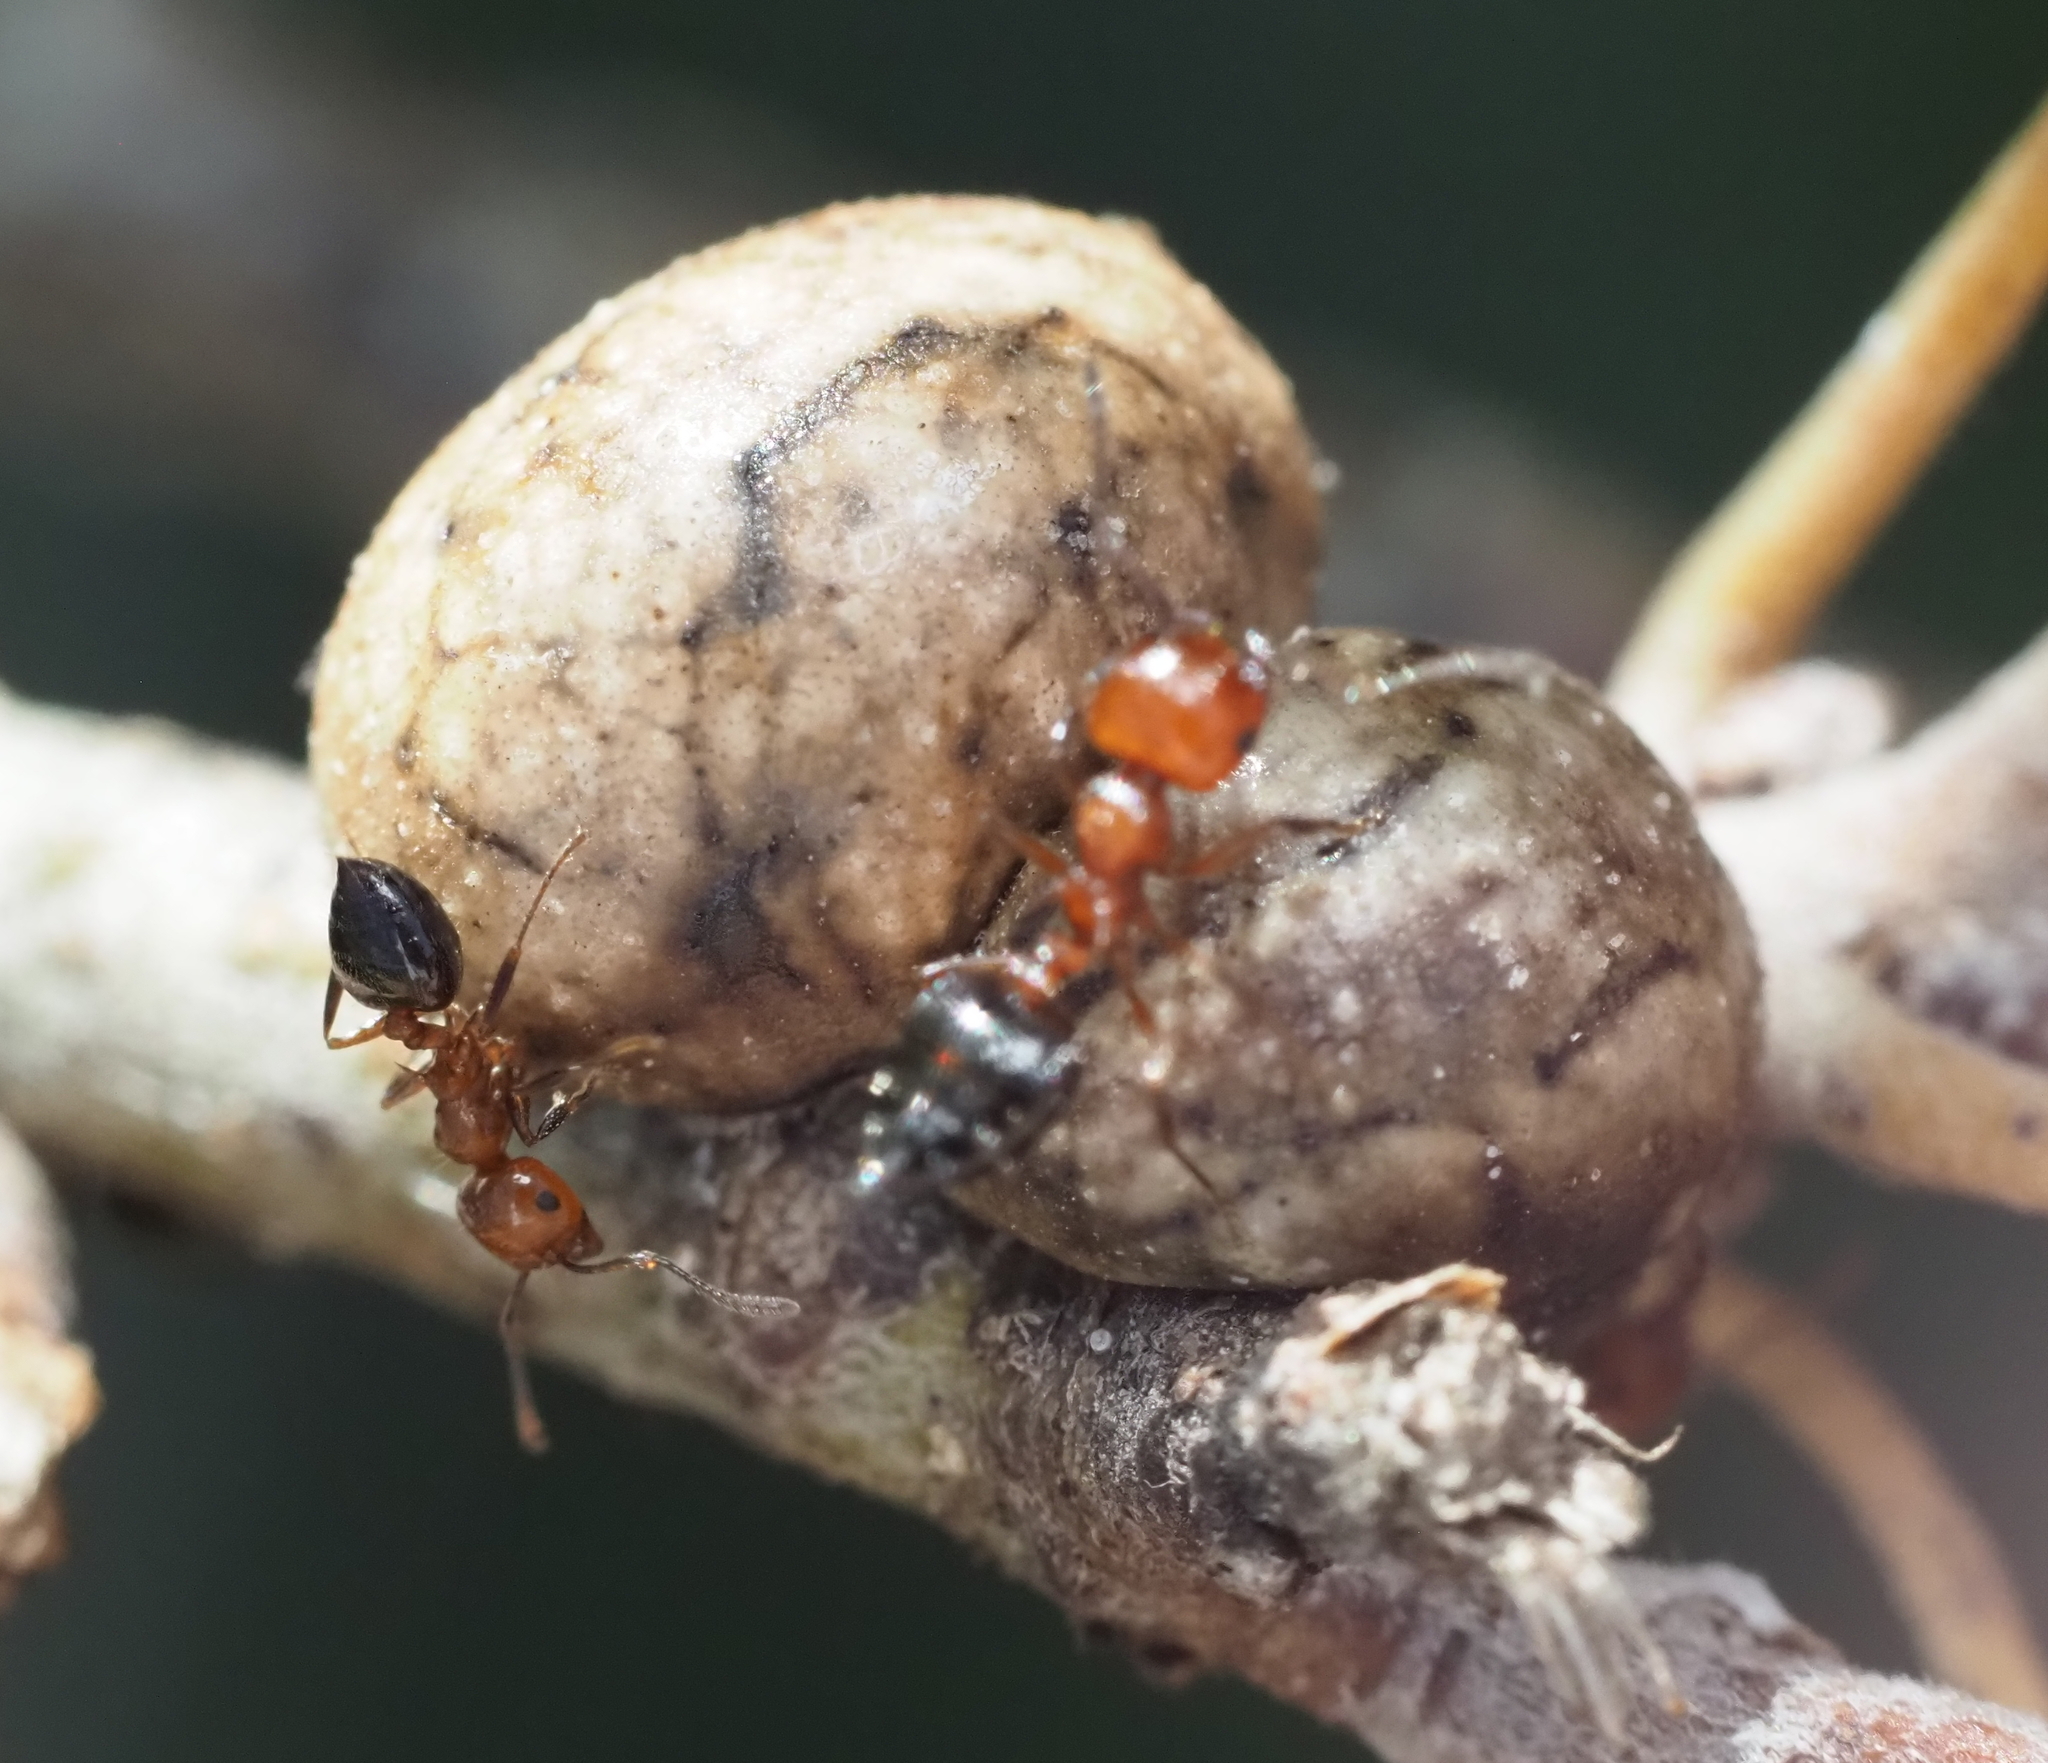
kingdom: Animalia
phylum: Arthropoda
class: Insecta
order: Hymenoptera
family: Formicidae
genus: Crematogaster
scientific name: Crematogaster laeviuscula
